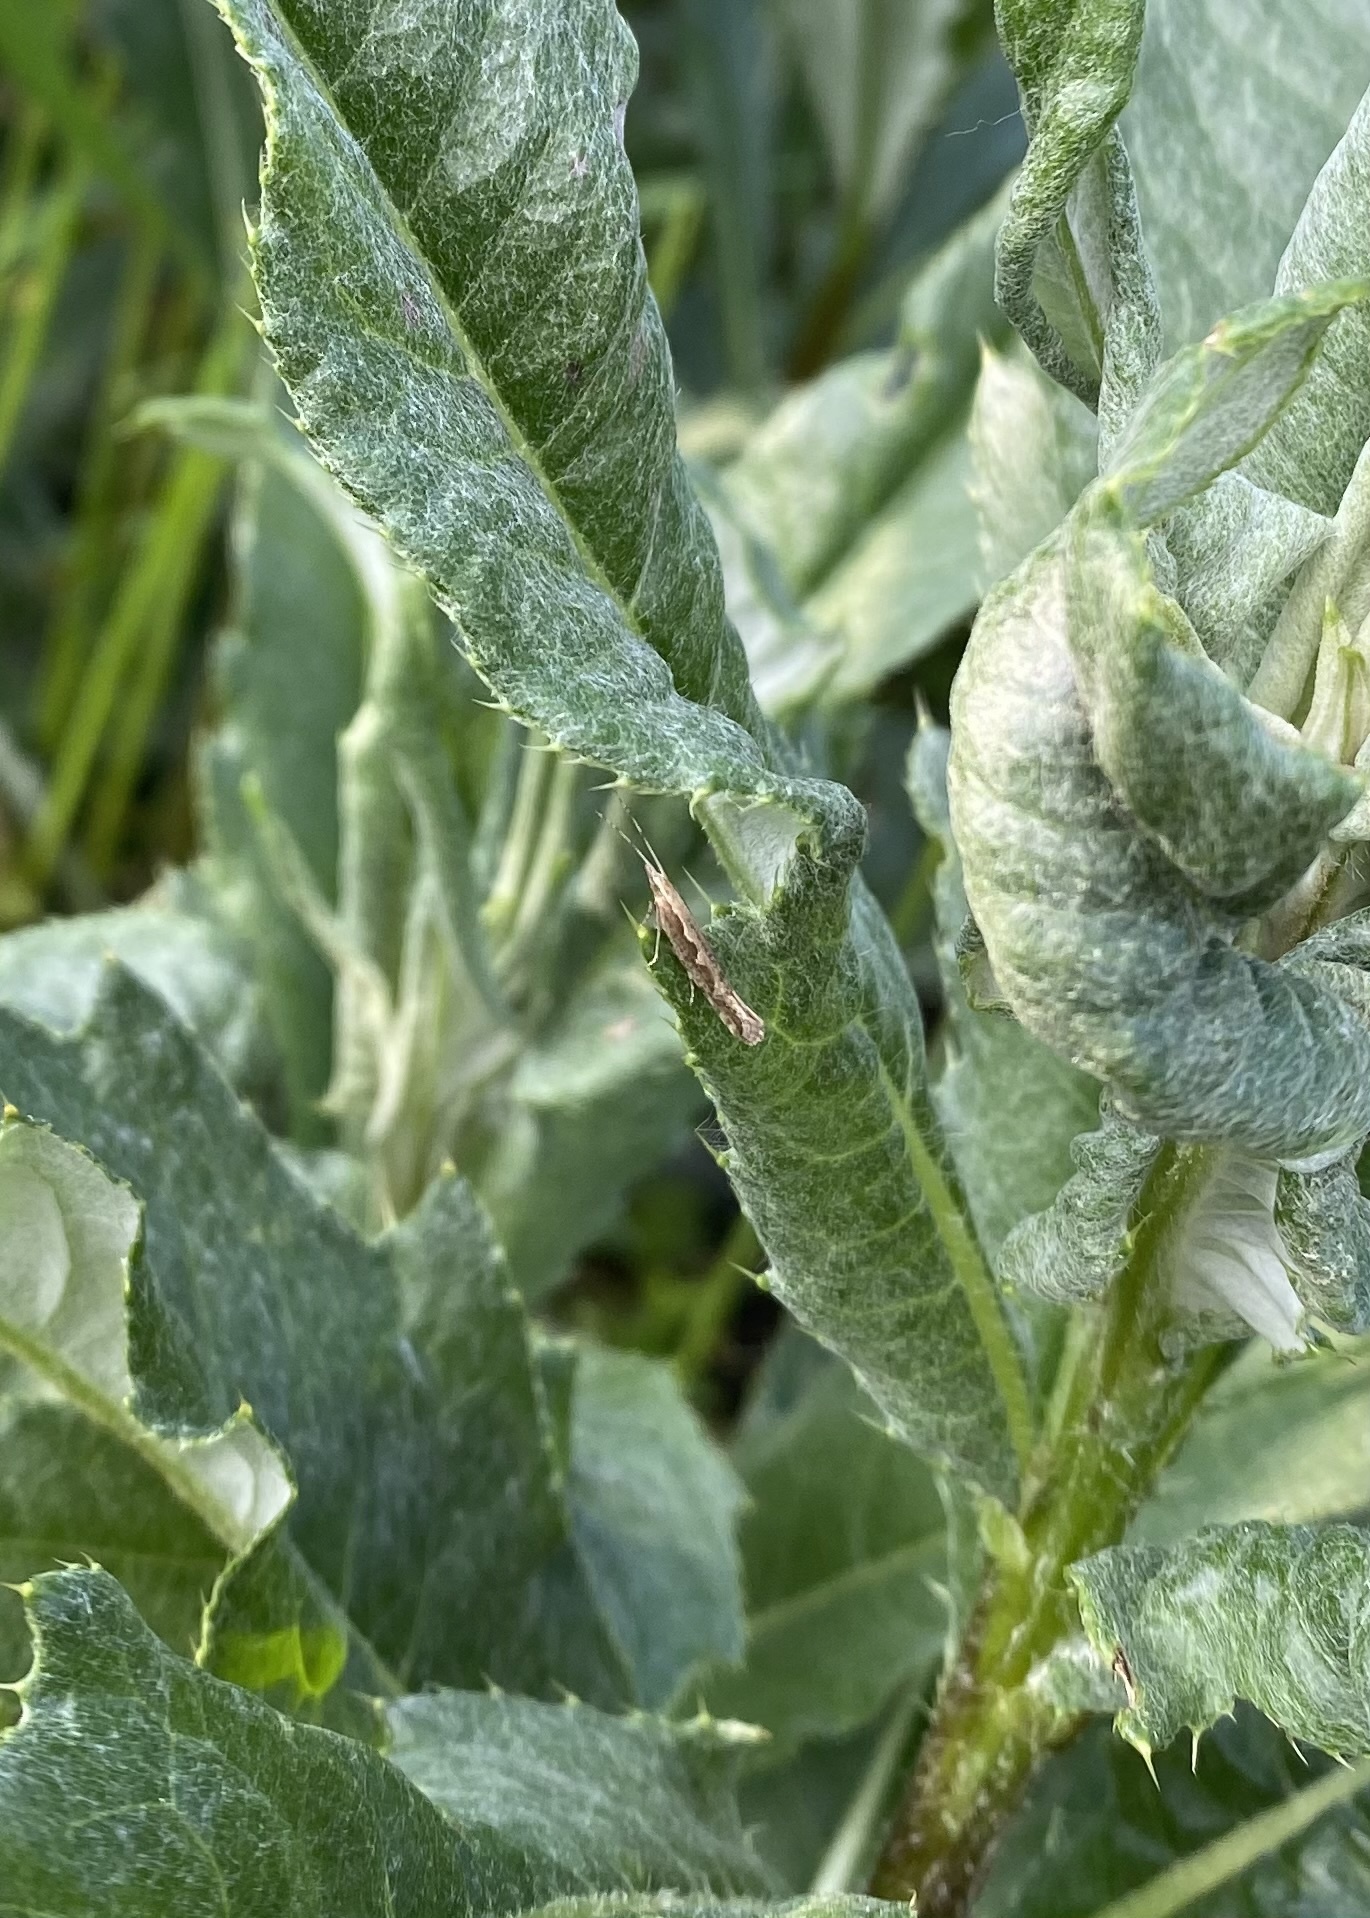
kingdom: Animalia
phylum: Arthropoda
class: Insecta
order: Lepidoptera
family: Plutellidae
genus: Plutella
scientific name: Plutella xylostella
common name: Diamond-back moth
